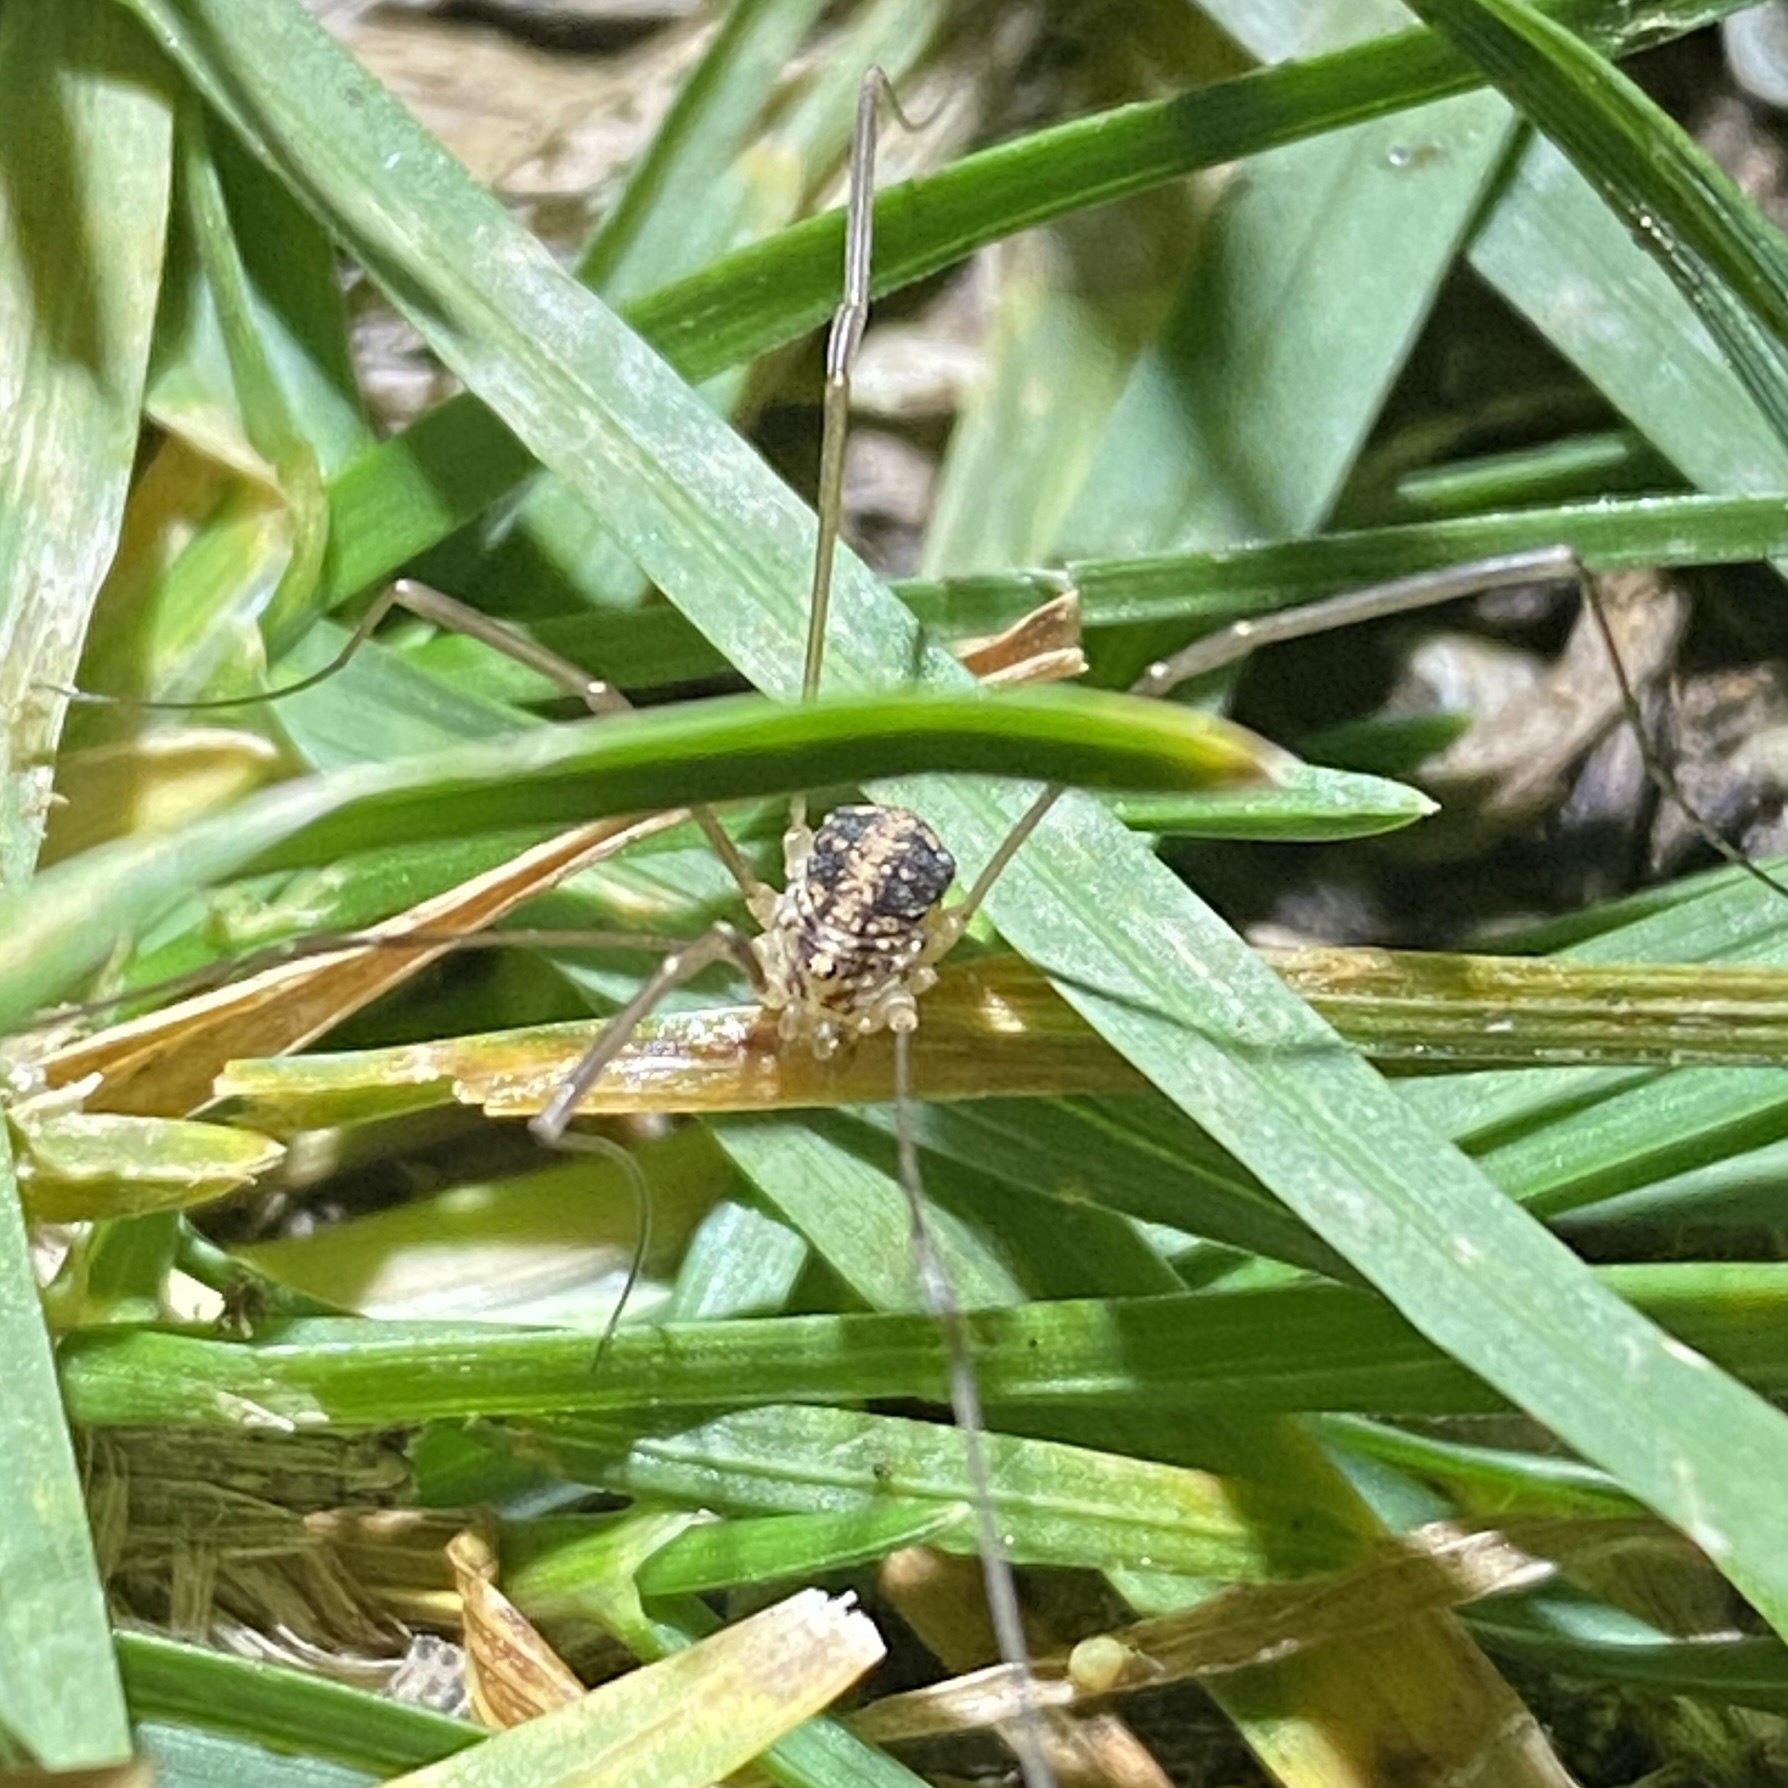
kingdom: Animalia
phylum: Arthropoda
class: Arachnida
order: Opiliones
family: Sclerosomatidae
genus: Nelima
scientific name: Nelima silvatica
